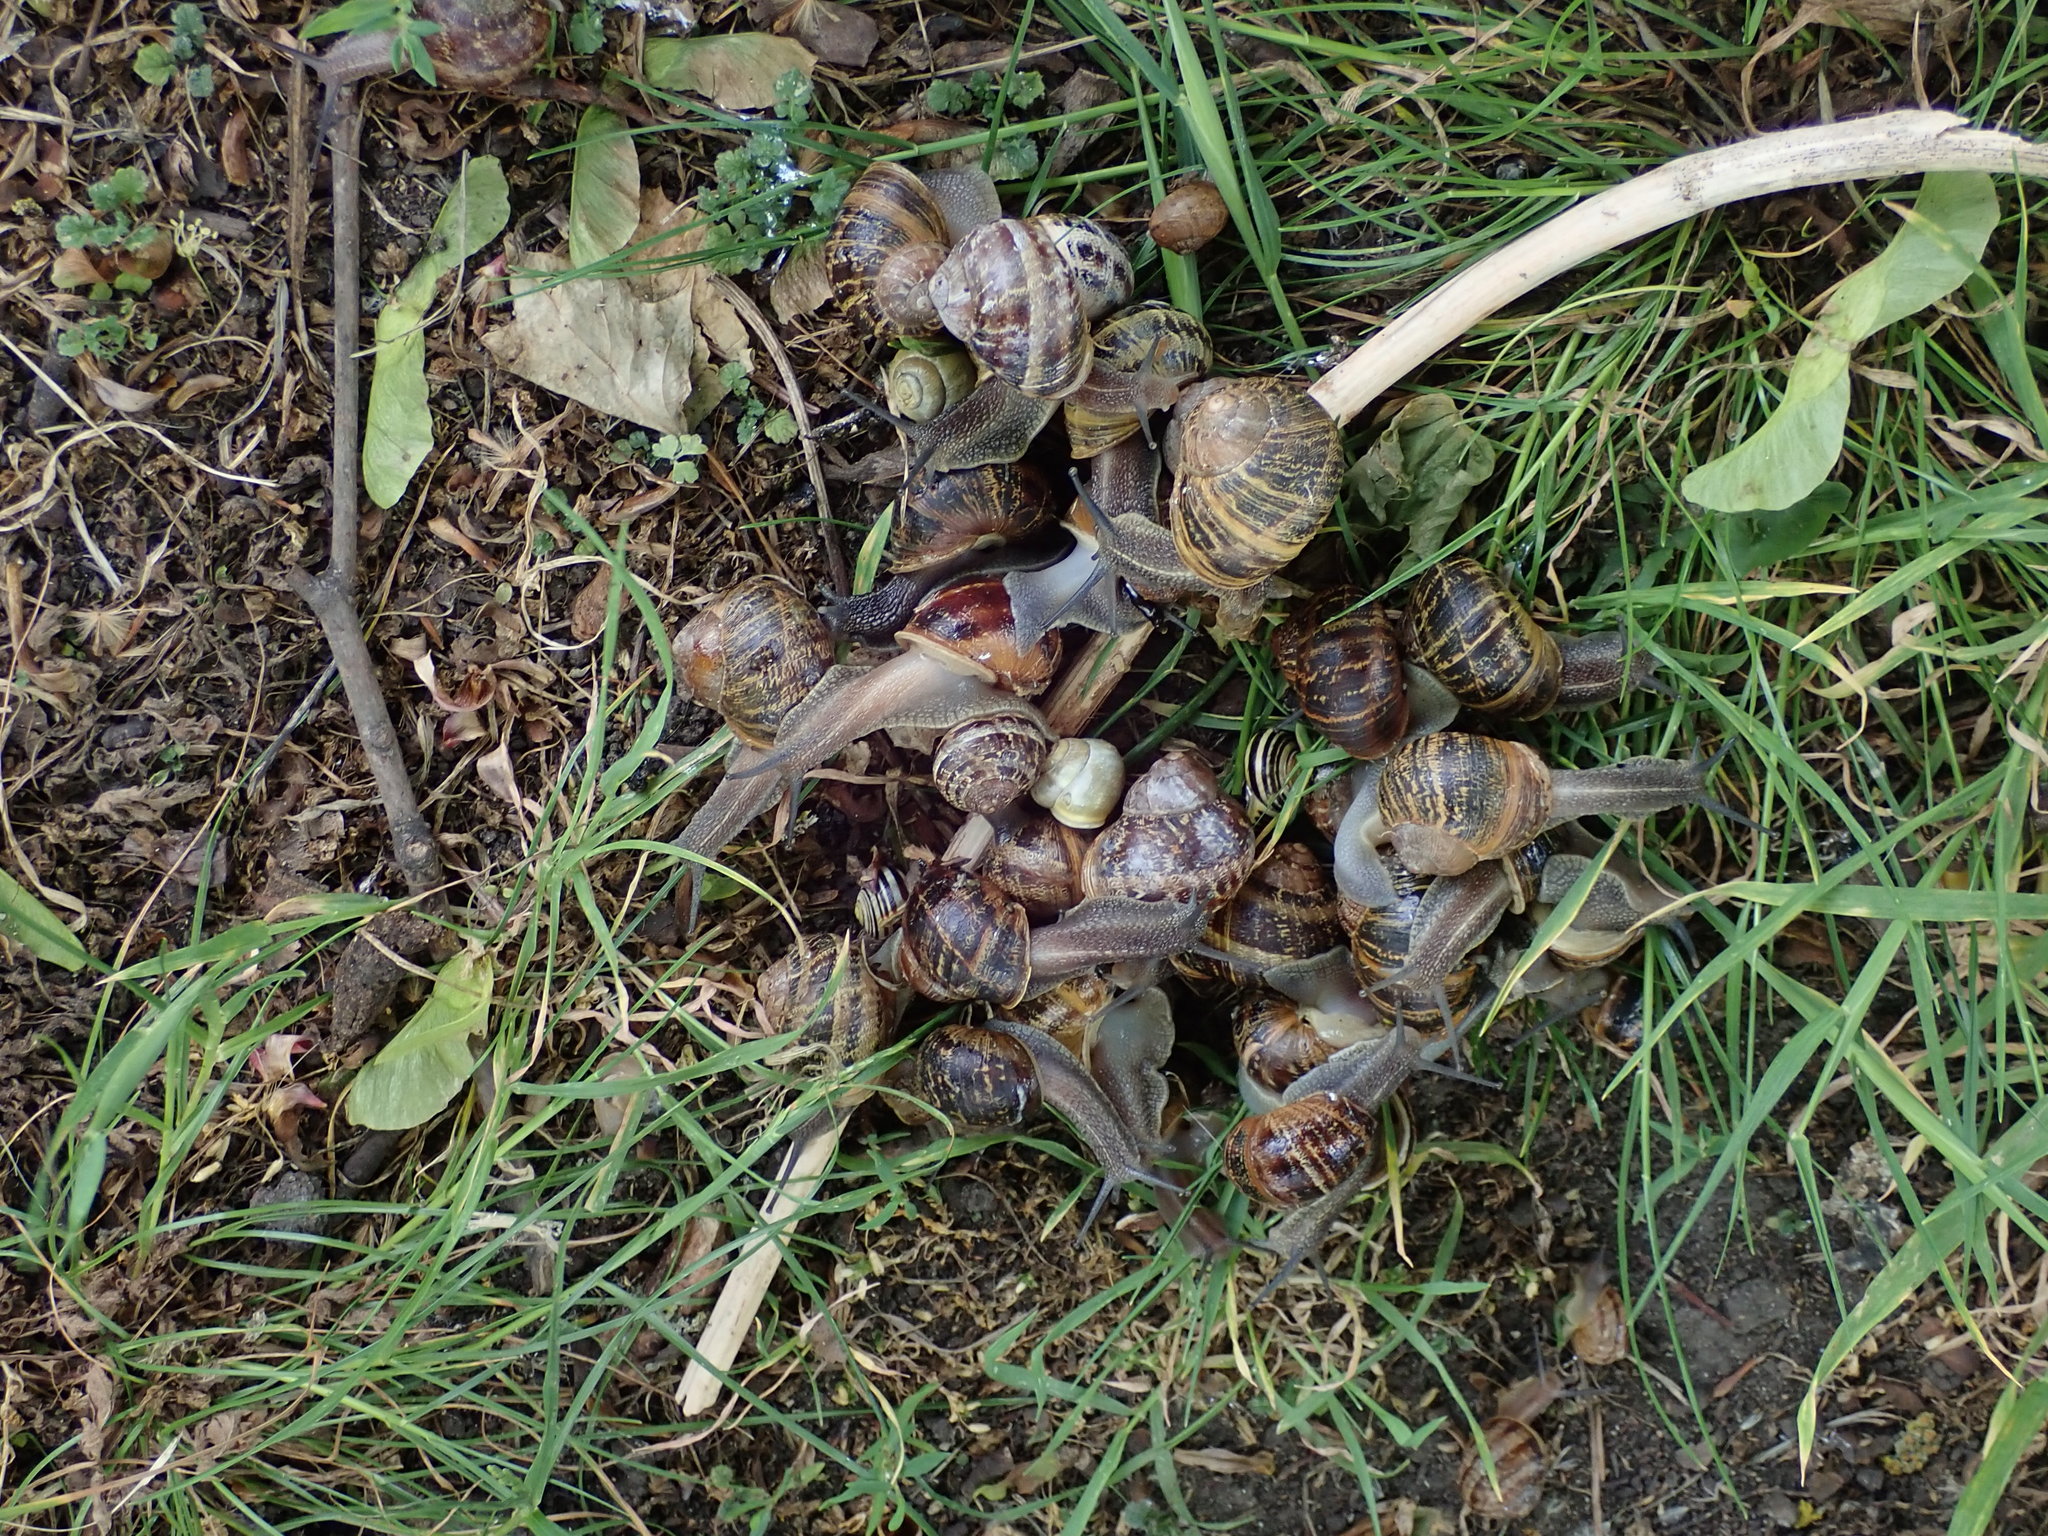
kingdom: Animalia
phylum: Mollusca
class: Gastropoda
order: Stylommatophora
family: Helicidae
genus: Cornu
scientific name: Cornu aspersum
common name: Brown garden snail
